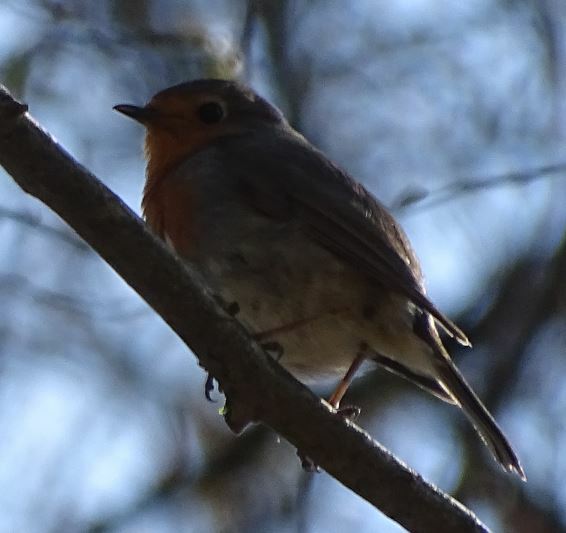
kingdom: Animalia
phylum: Chordata
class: Aves
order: Passeriformes
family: Muscicapidae
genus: Erithacus
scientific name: Erithacus rubecula
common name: European robin
